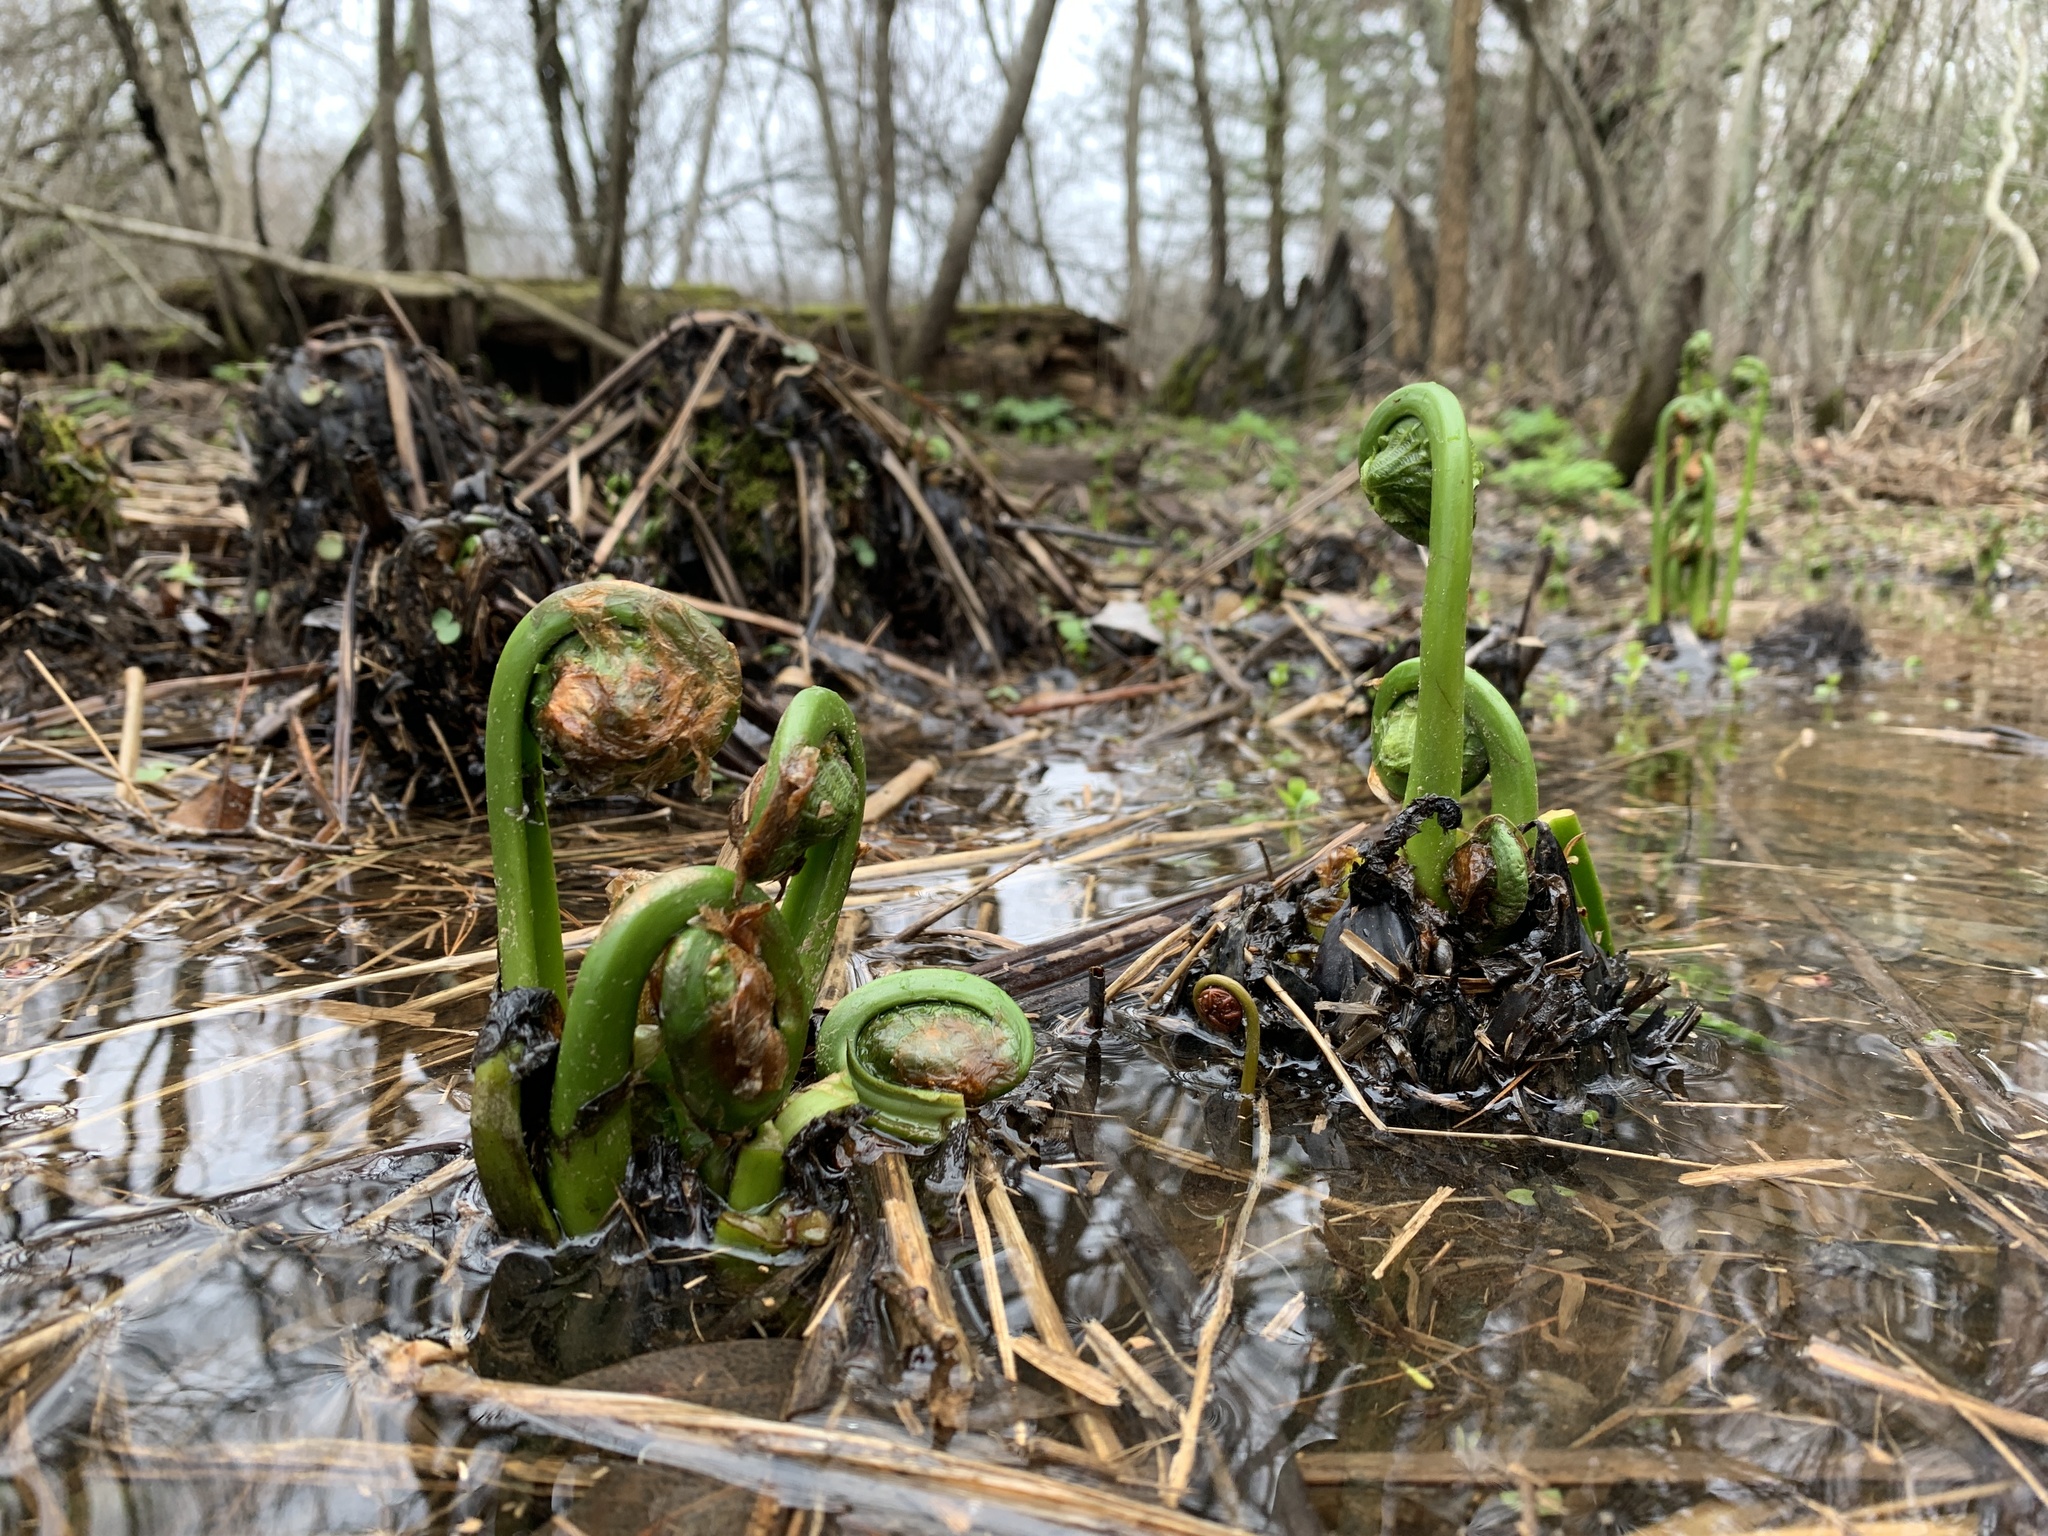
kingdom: Plantae
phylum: Tracheophyta
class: Polypodiopsida
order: Polypodiales
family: Onocleaceae
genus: Matteuccia
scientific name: Matteuccia struthiopteris
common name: Ostrich fern
